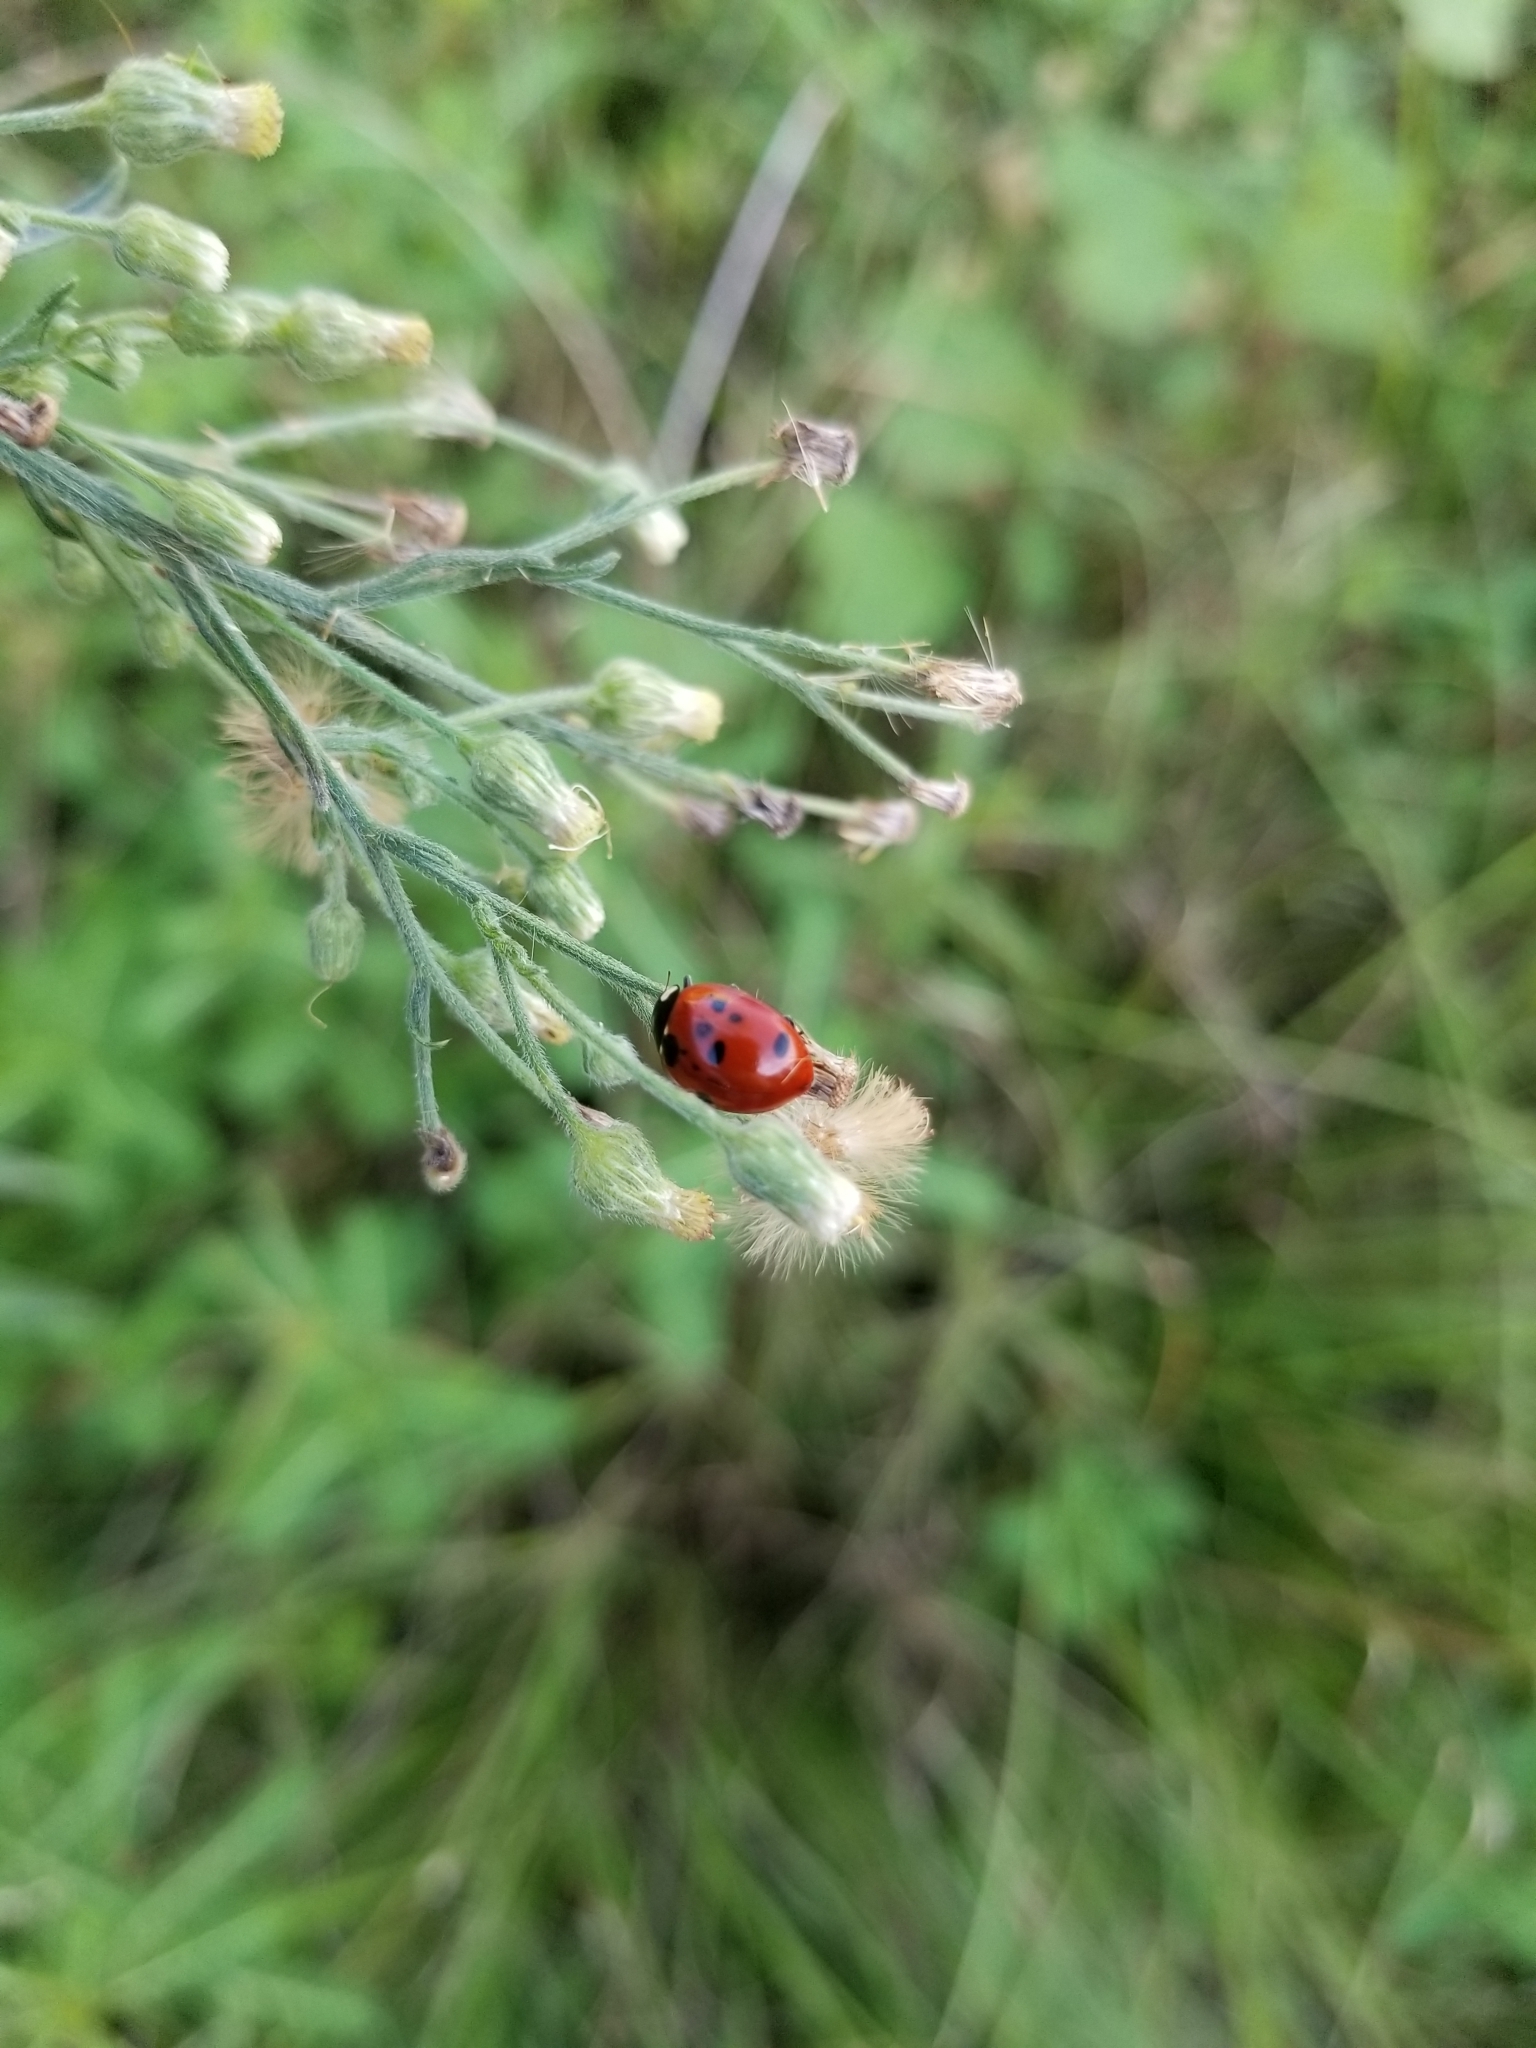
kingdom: Animalia
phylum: Arthropoda
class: Insecta
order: Coleoptera
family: Coccinellidae
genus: Coccinella
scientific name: Coccinella septempunctata
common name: Sevenspotted lady beetle
